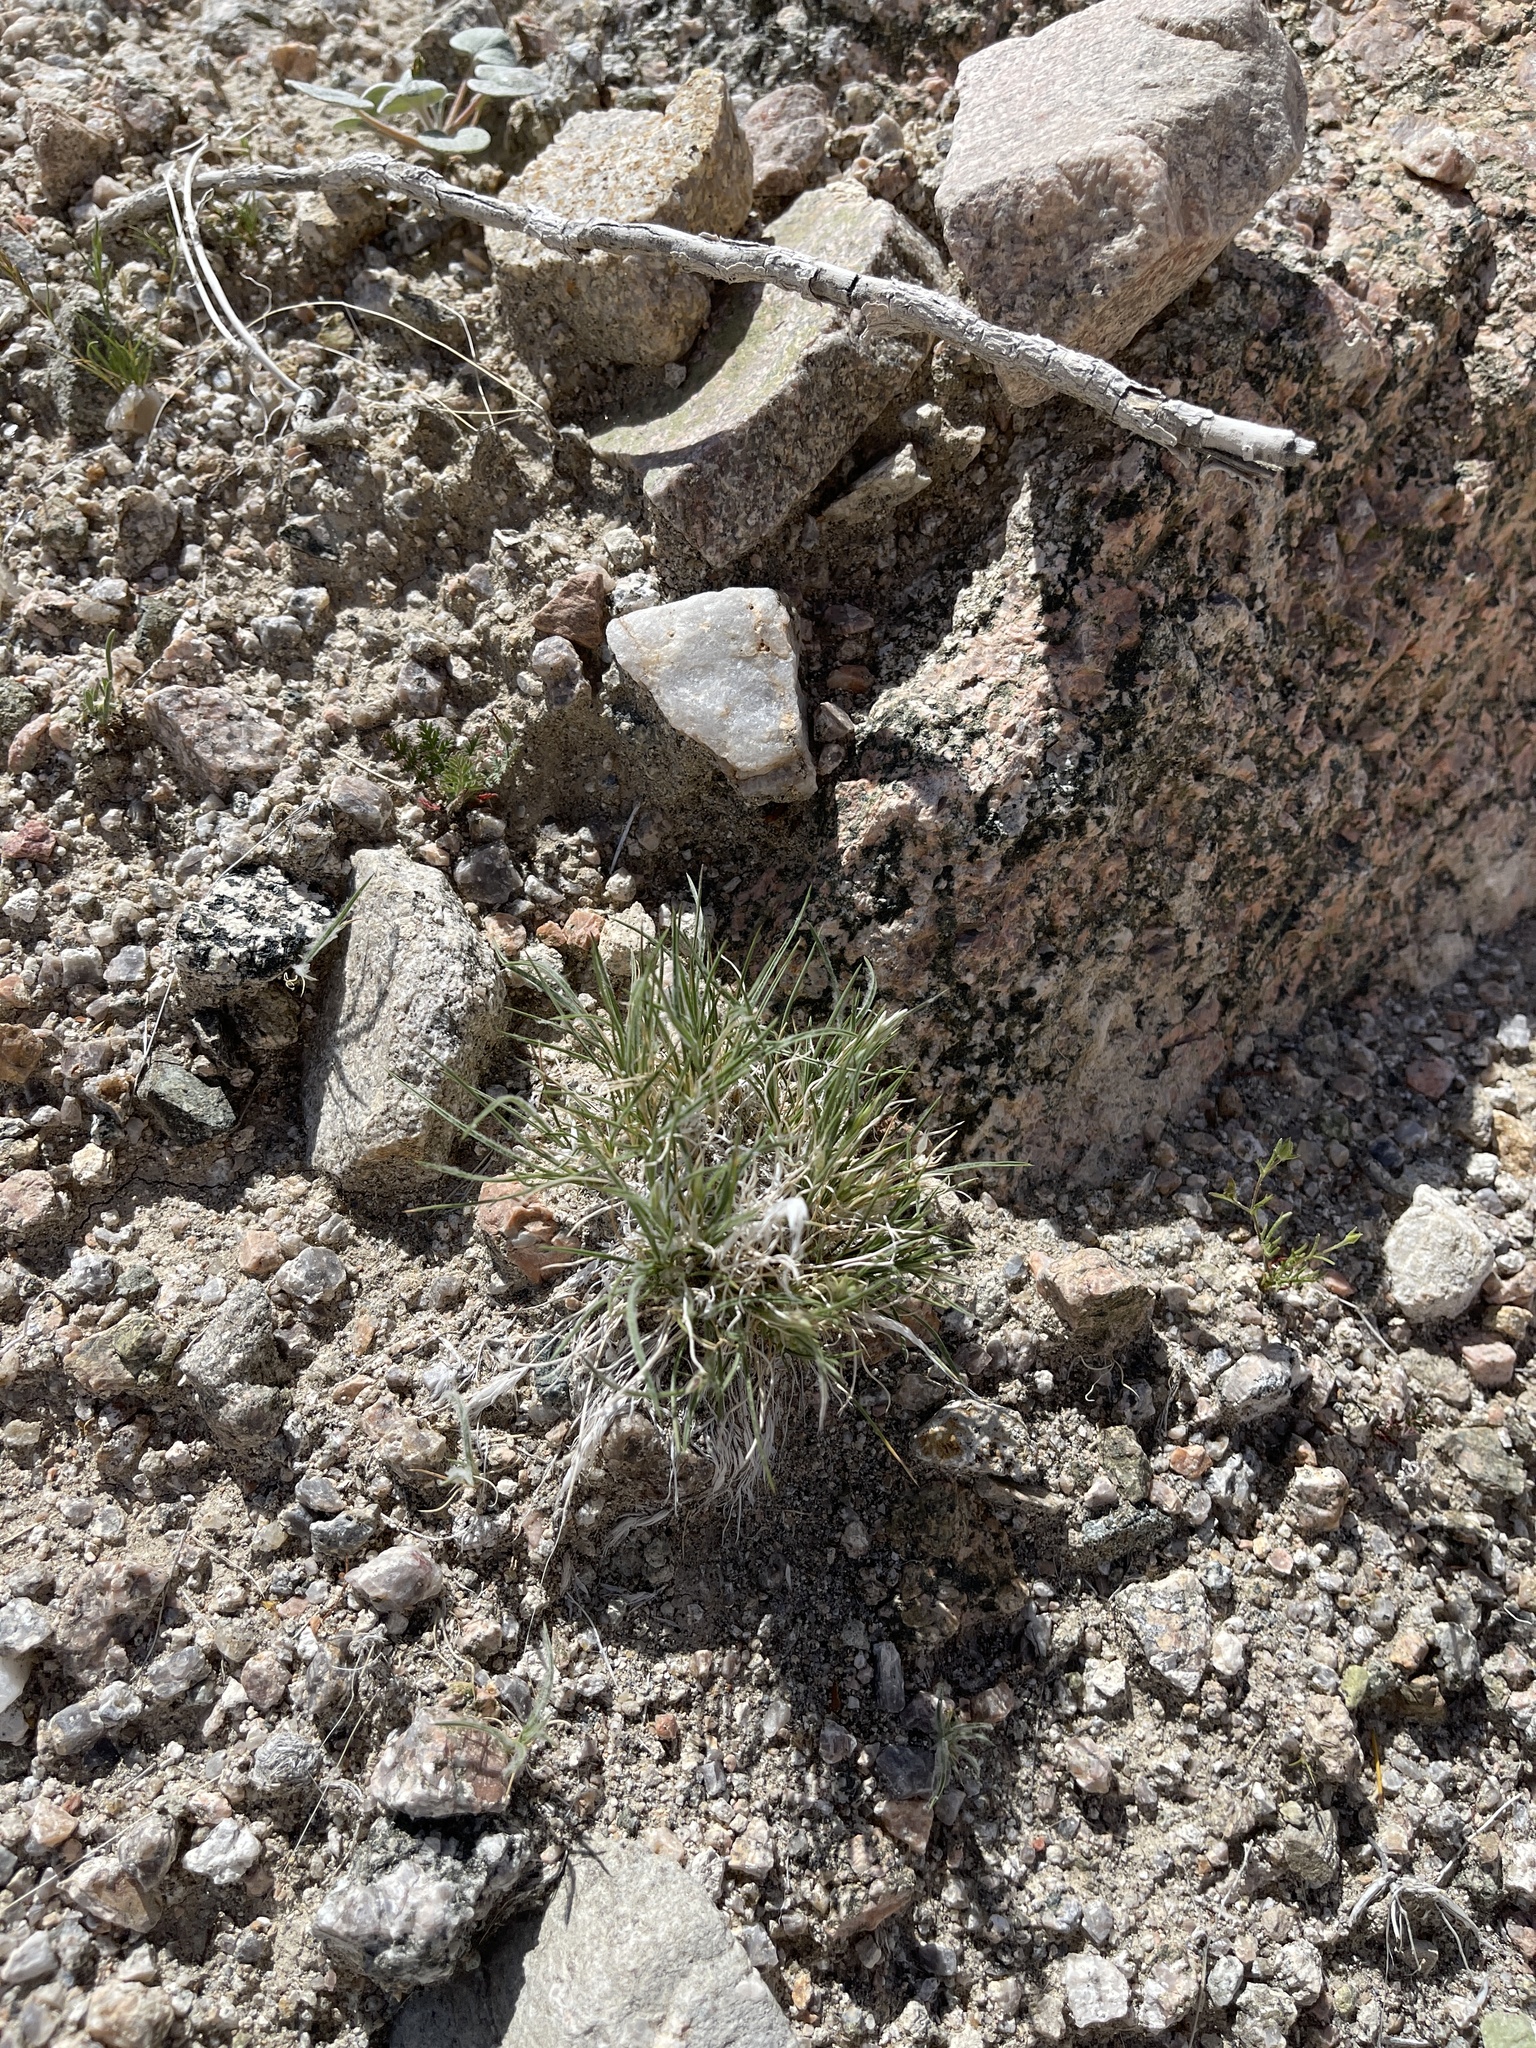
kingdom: Plantae
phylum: Tracheophyta
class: Liliopsida
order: Poales
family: Poaceae
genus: Dasyochloa
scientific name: Dasyochloa pulchella
